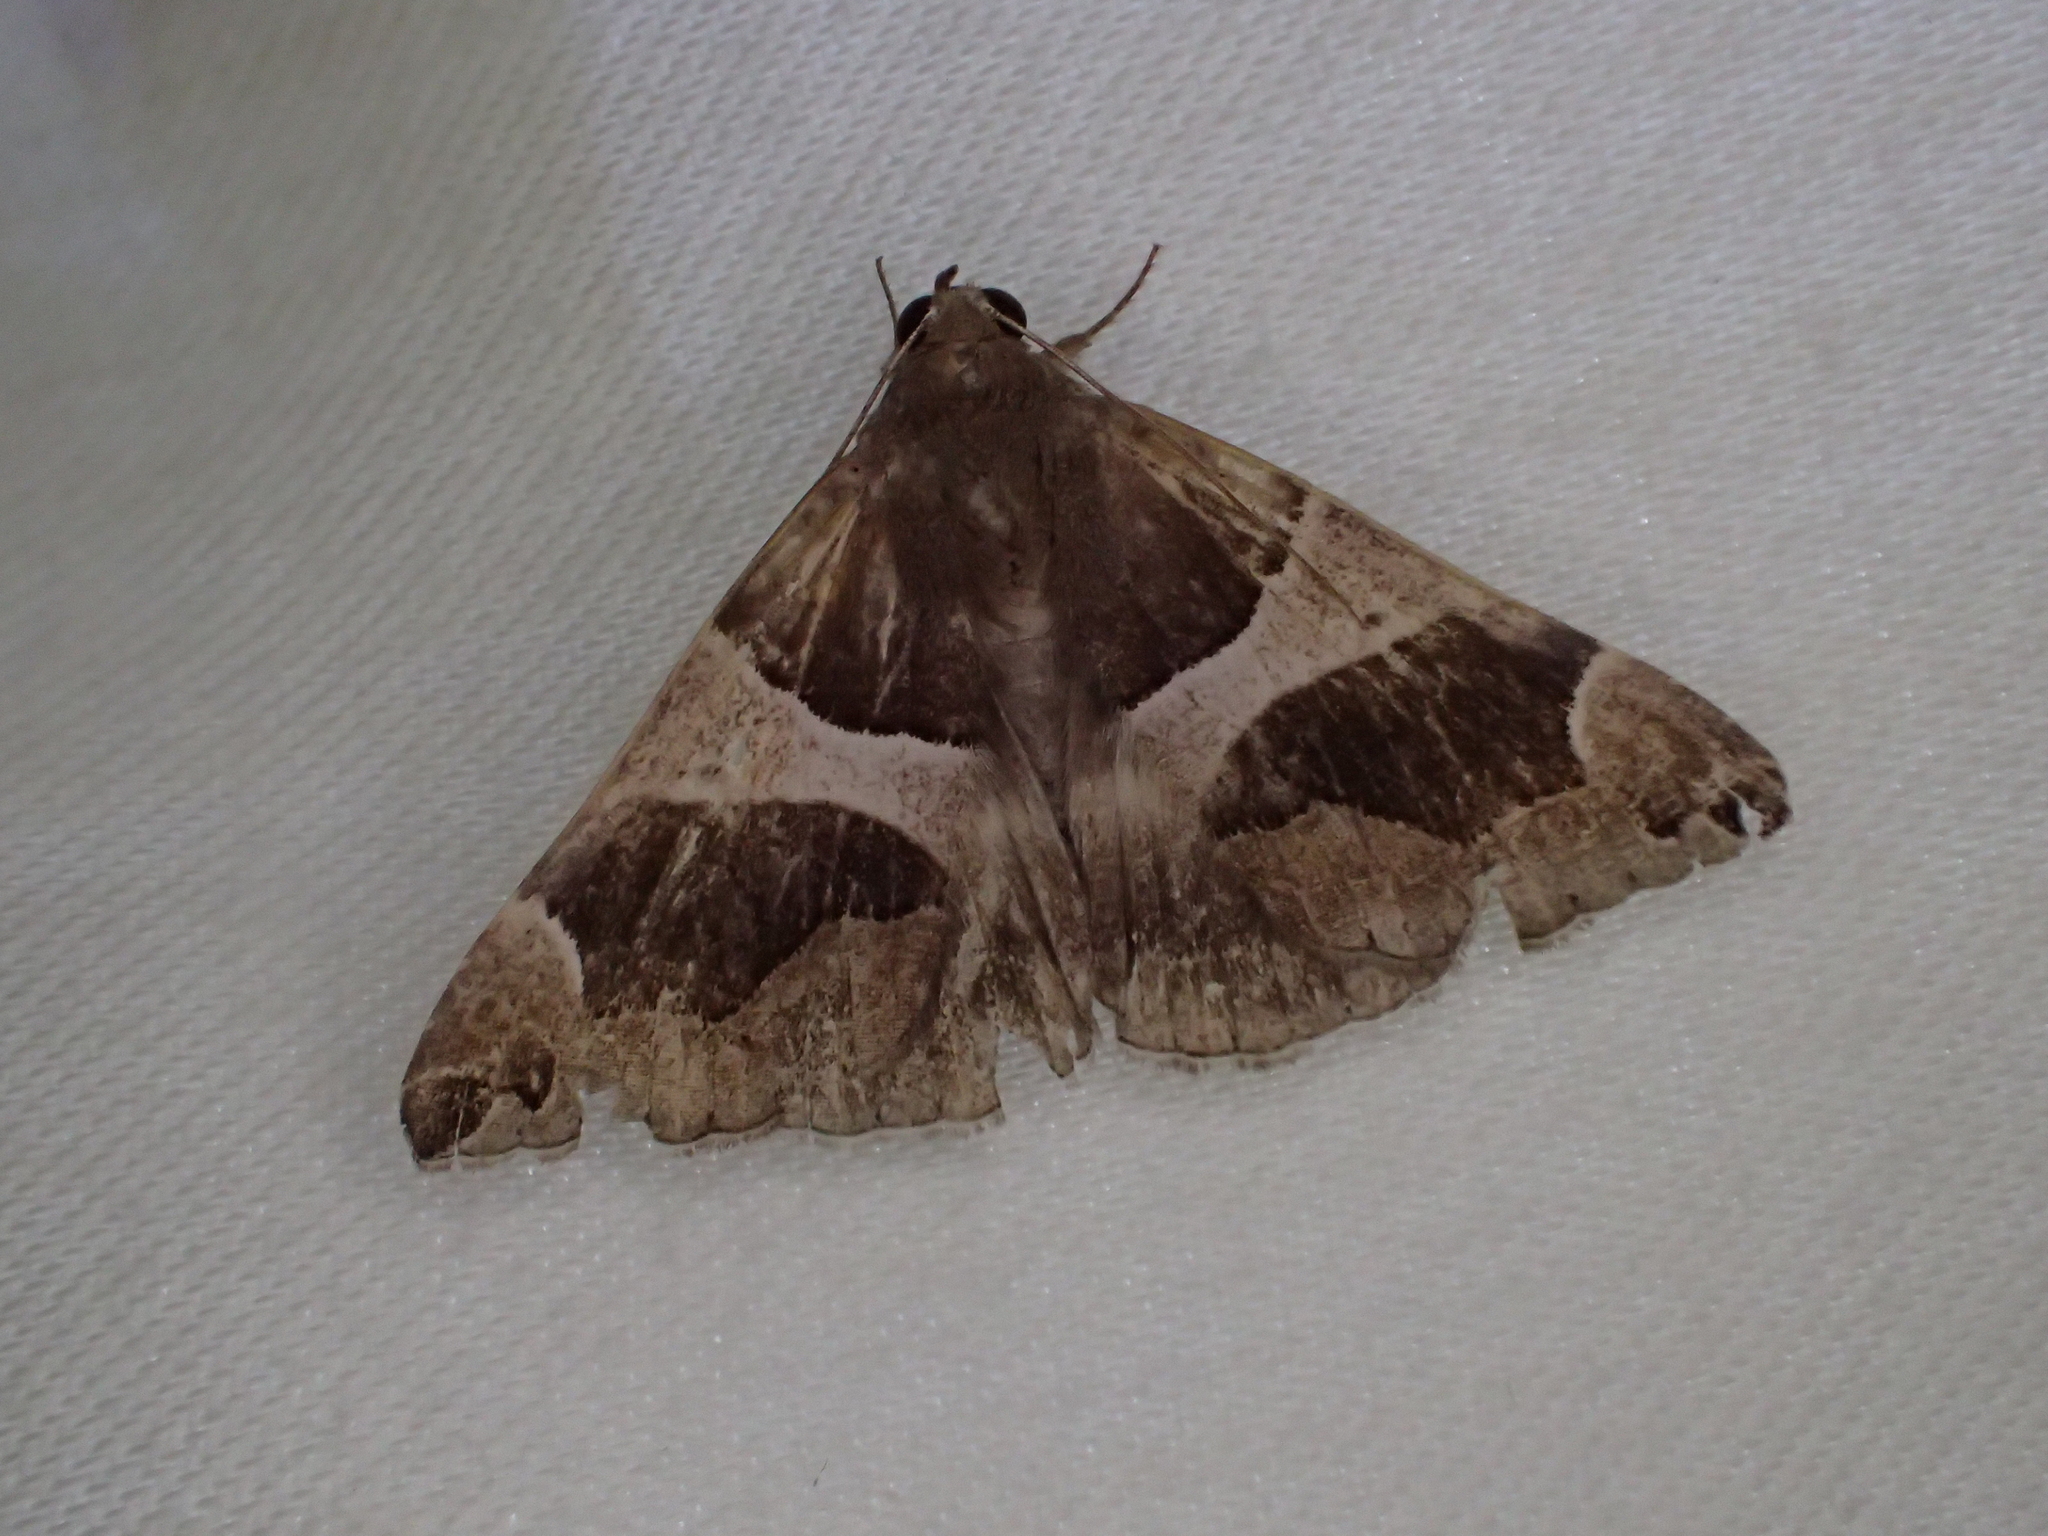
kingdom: Animalia
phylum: Arthropoda
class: Insecta
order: Lepidoptera
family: Erebidae
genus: Dysgonia
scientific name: Dysgonia algira
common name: Passenger
